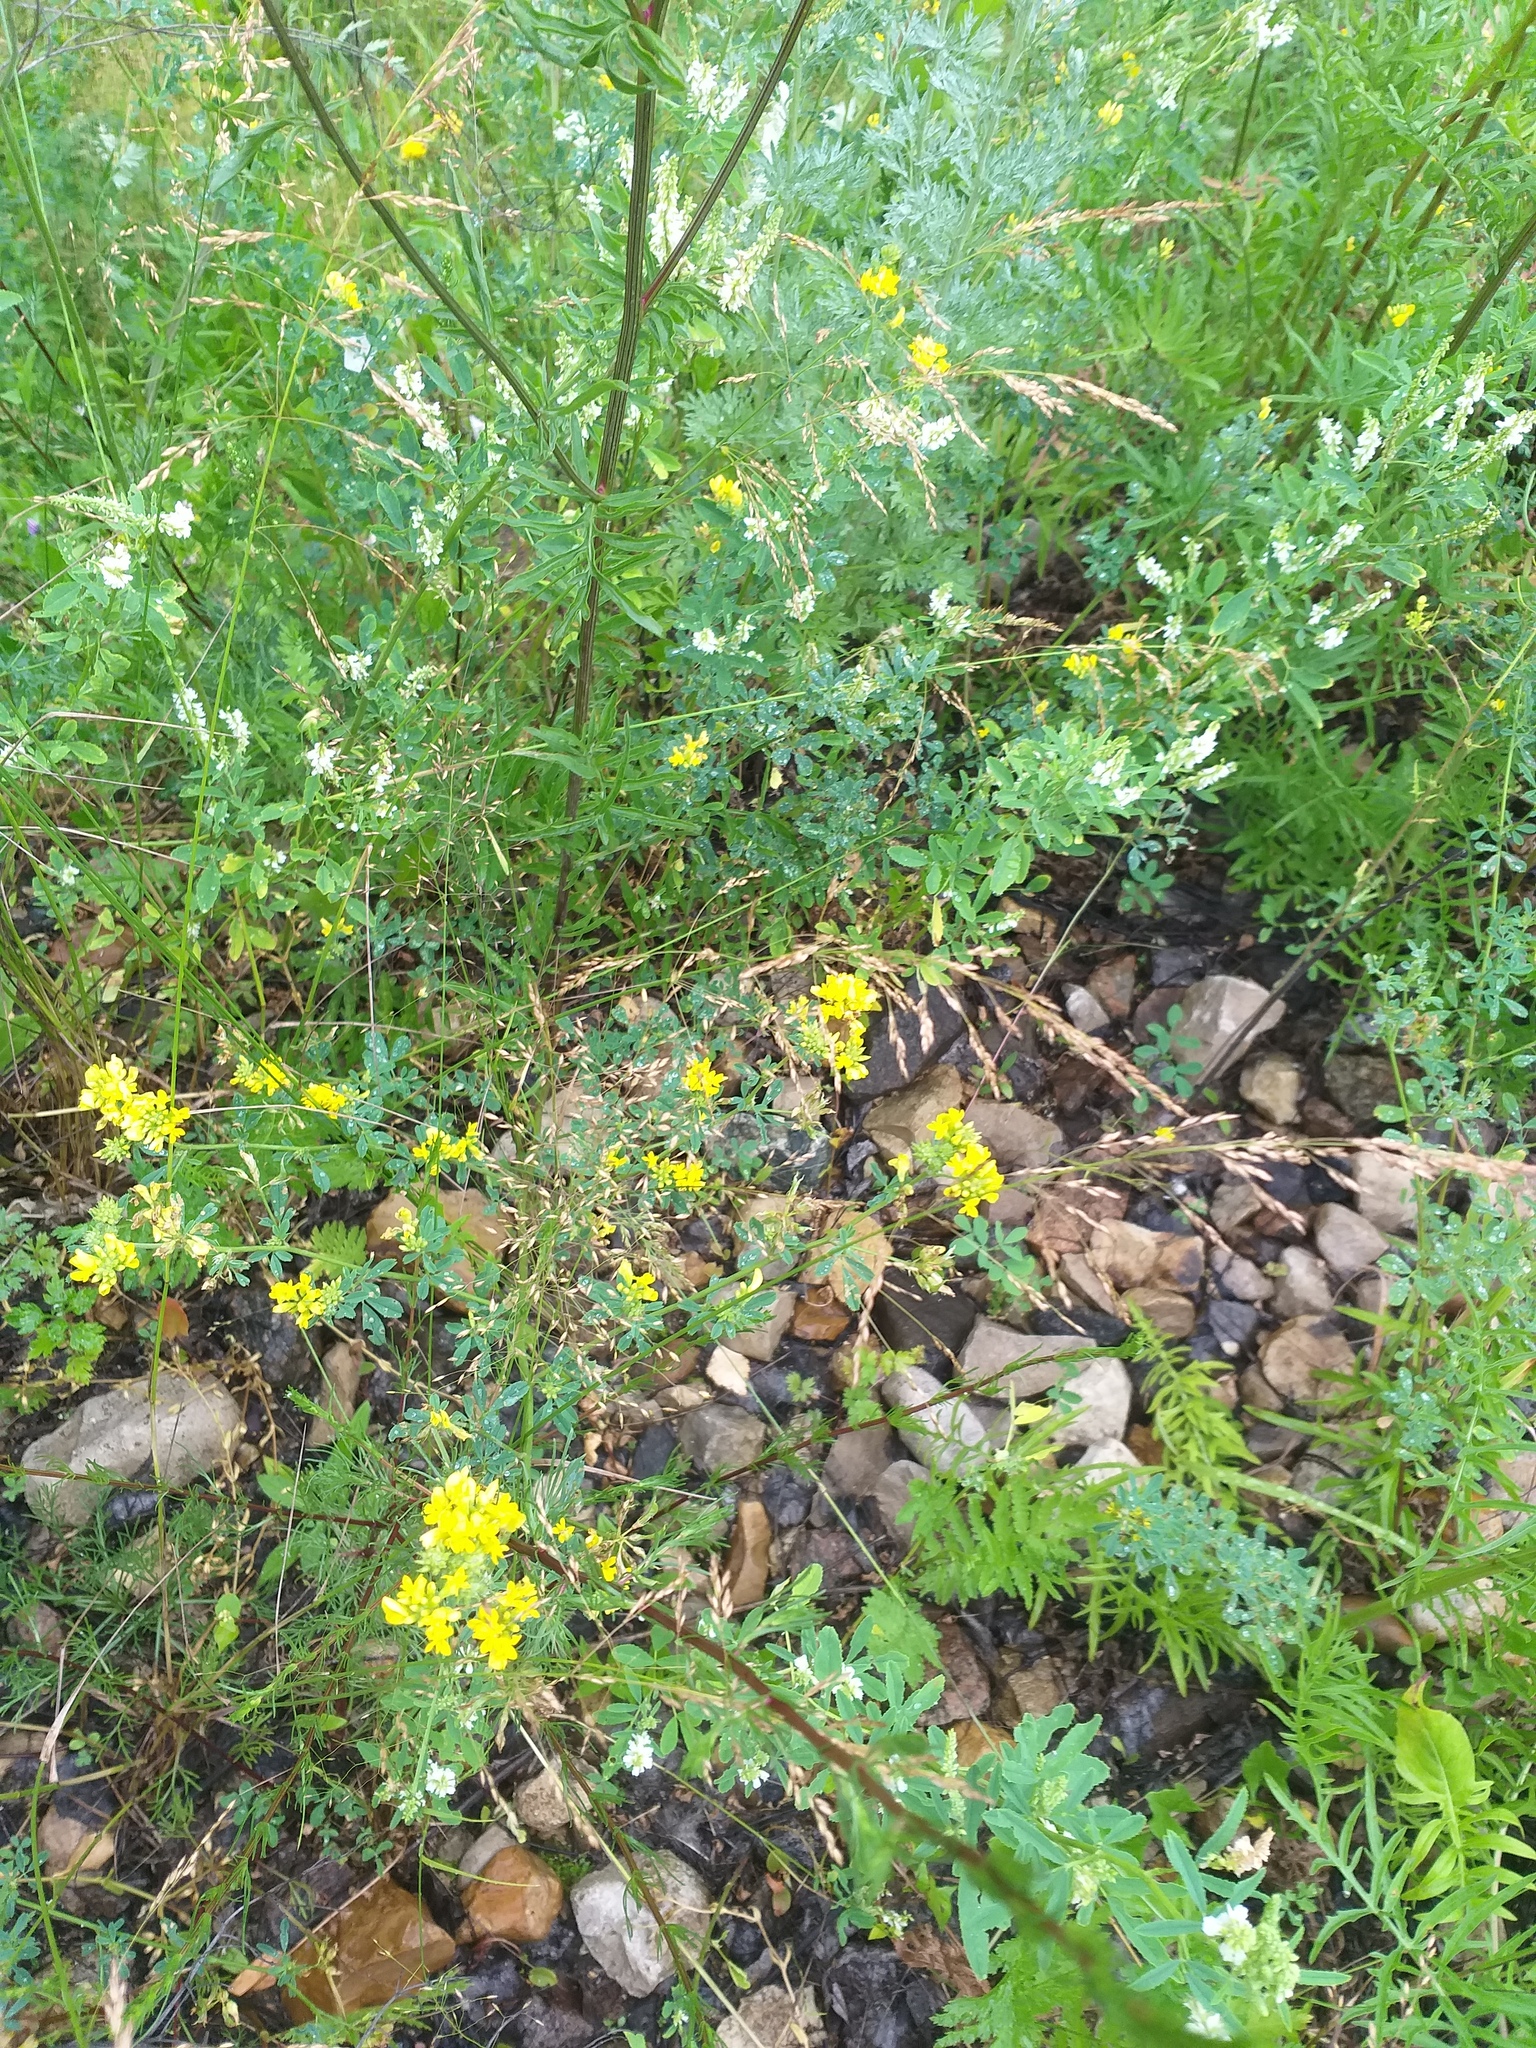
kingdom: Plantae
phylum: Tracheophyta
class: Magnoliopsida
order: Fabales
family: Fabaceae
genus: Medicago
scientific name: Medicago falcata
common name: Sickle medick
